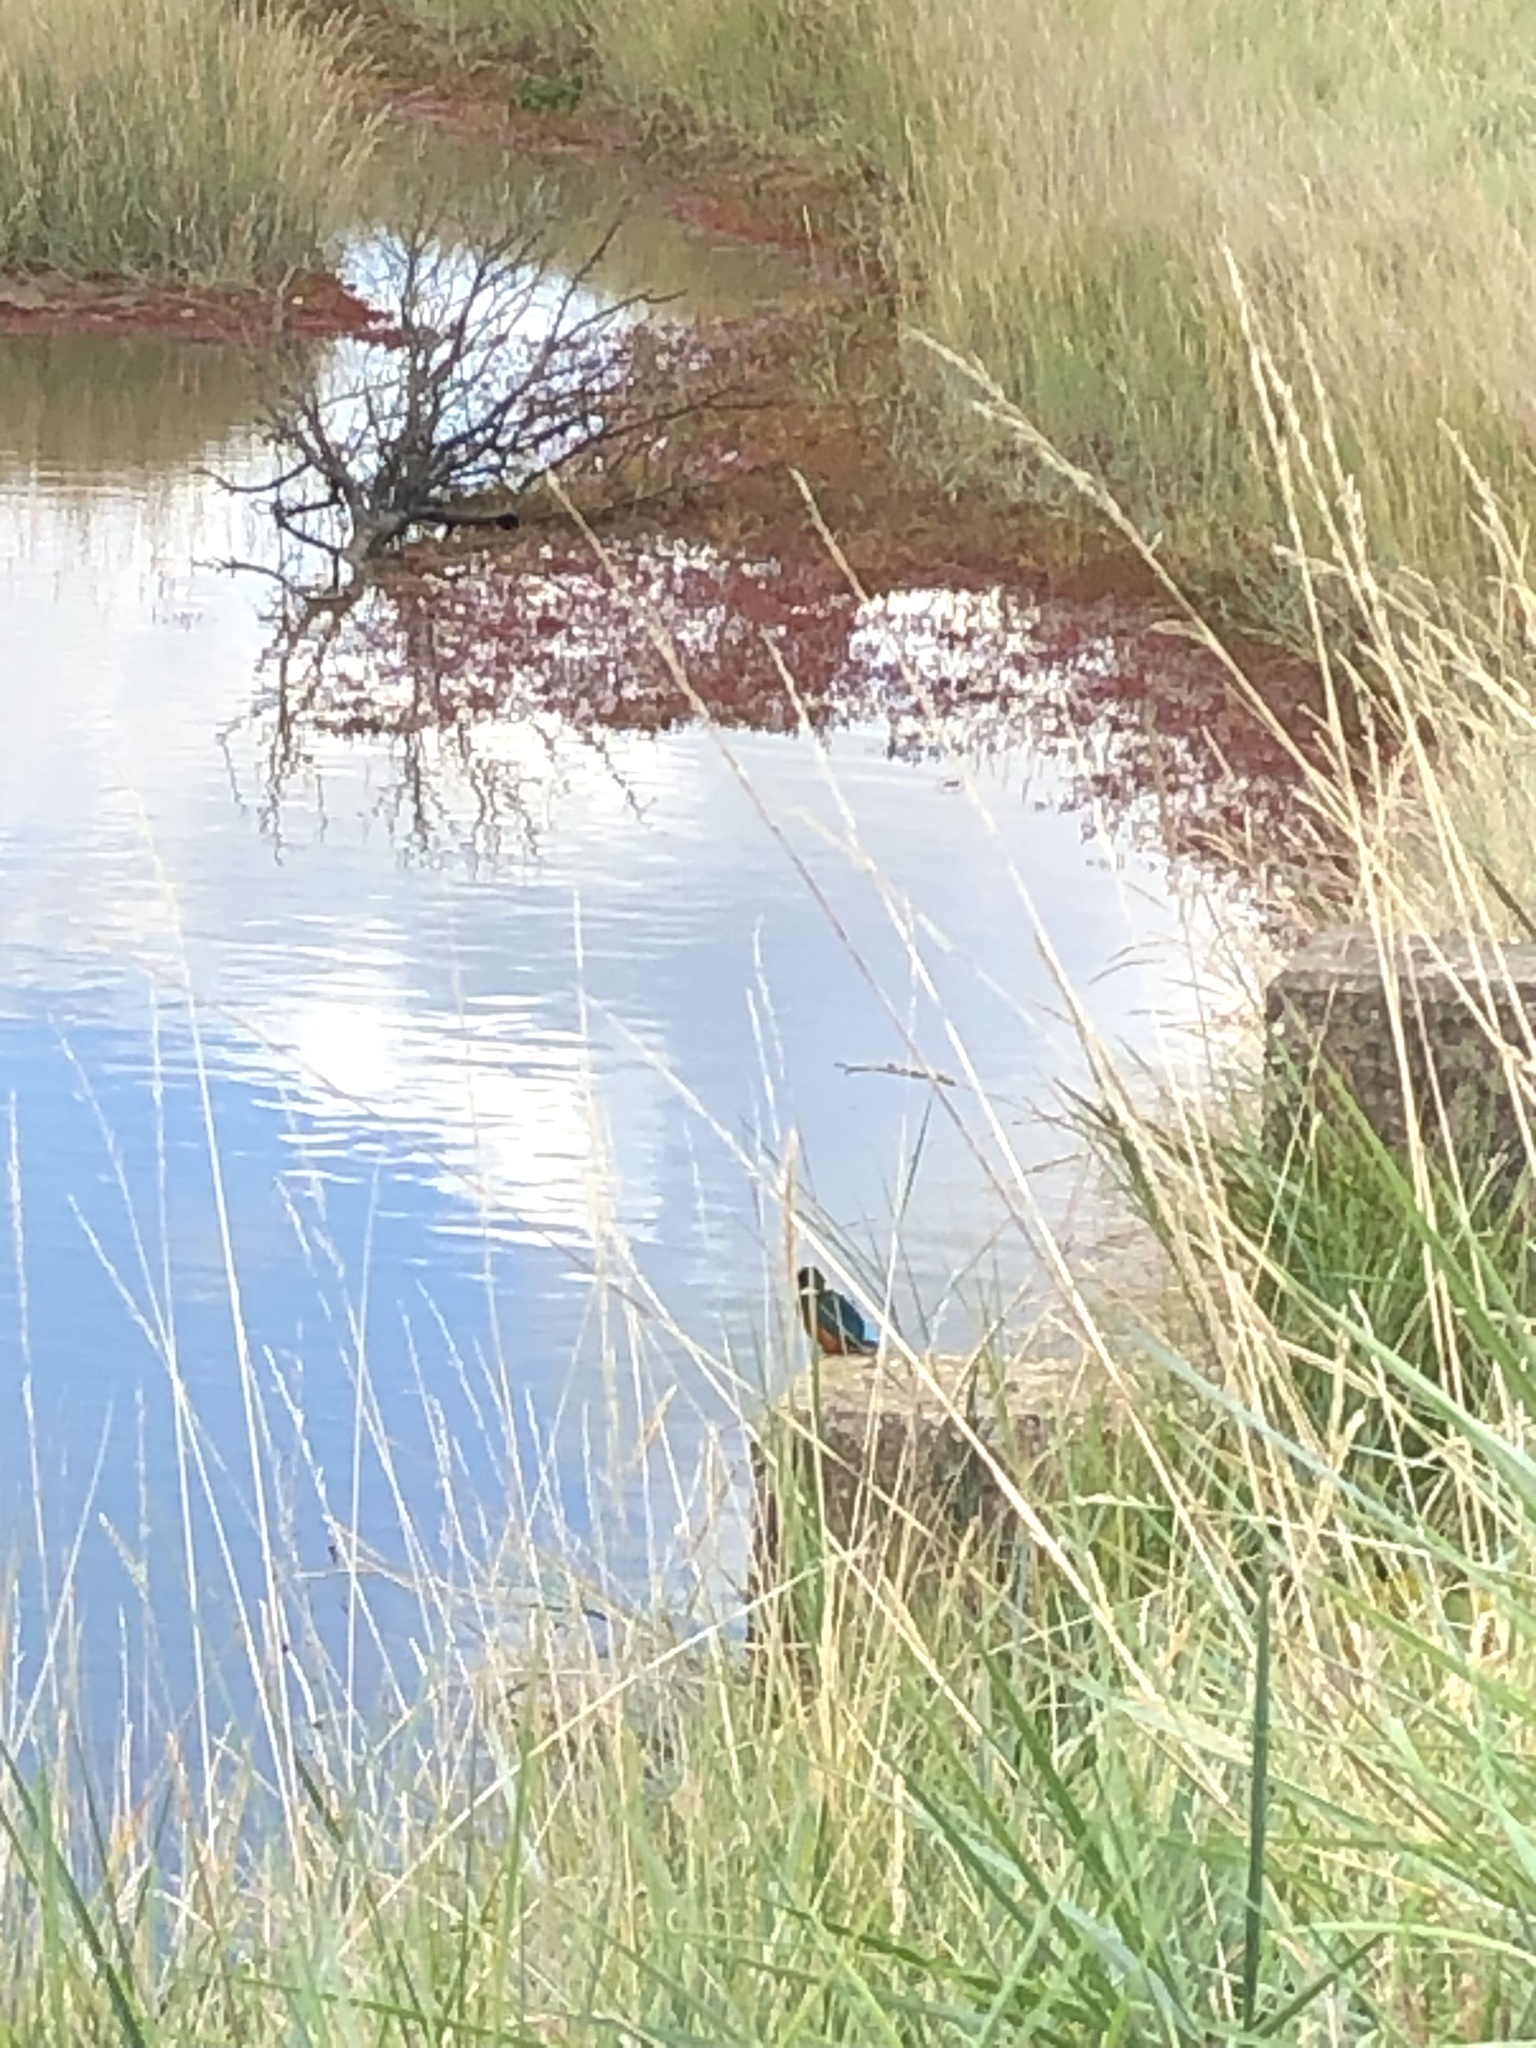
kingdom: Animalia
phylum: Chordata
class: Aves
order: Coraciiformes
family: Alcedinidae
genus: Alcedo
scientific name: Alcedo atthis
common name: Common kingfisher
